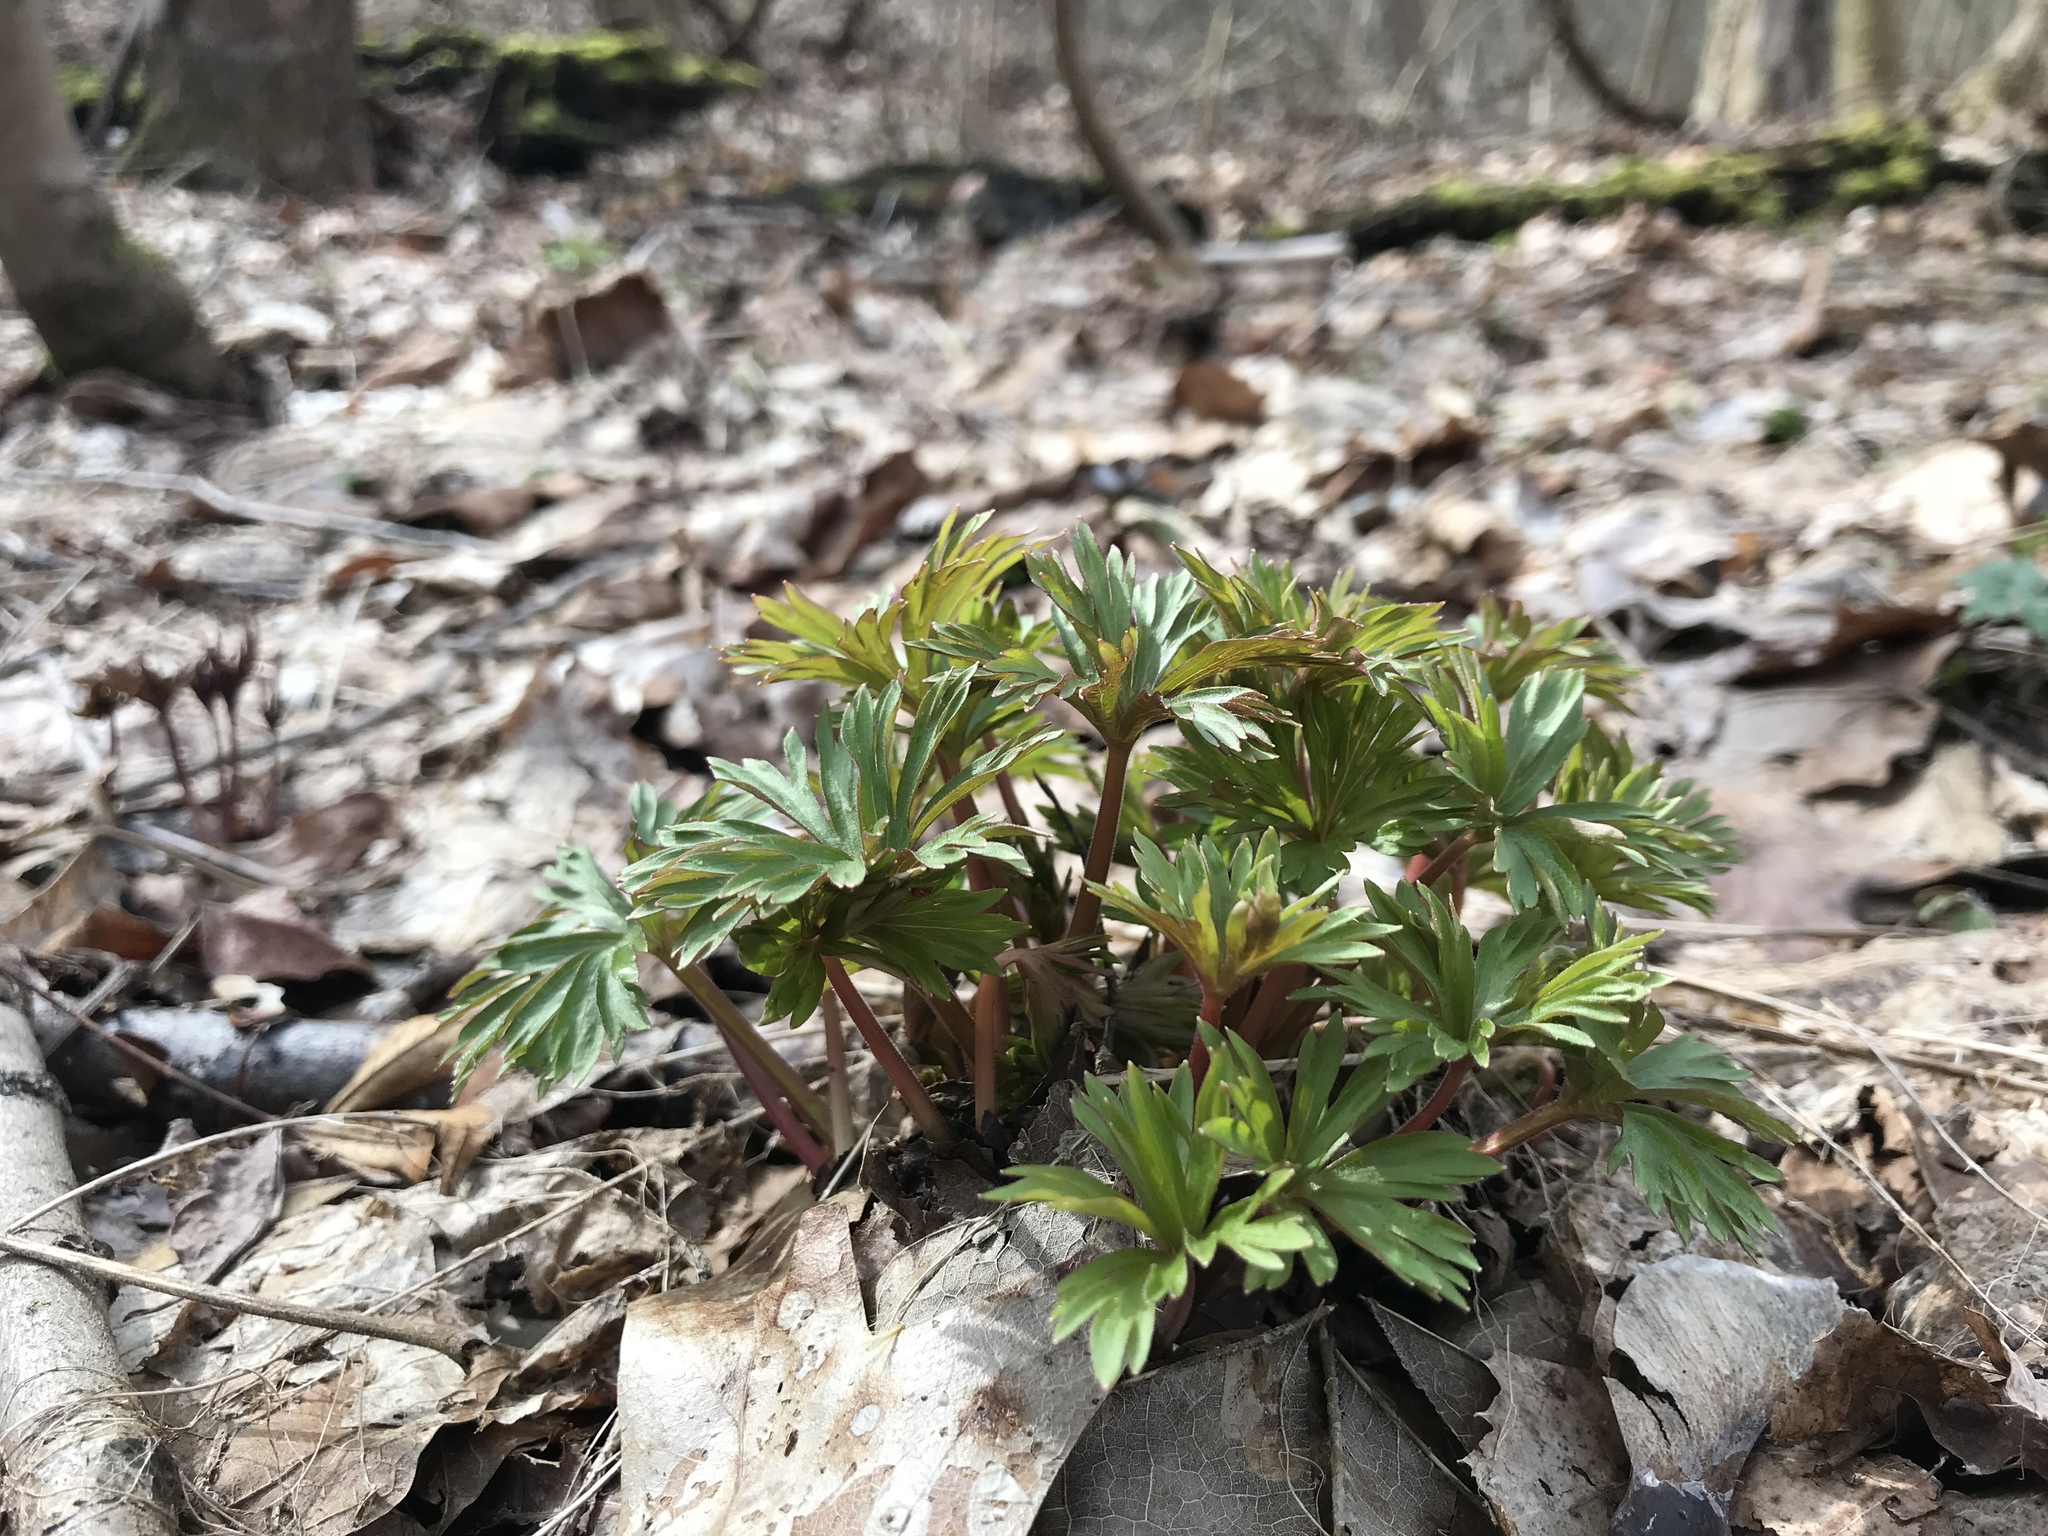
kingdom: Plantae
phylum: Tracheophyta
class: Magnoliopsida
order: Ranunculales
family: Ranunculaceae
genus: Delphinium
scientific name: Delphinium tricorne
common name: Dwarf larkspur
